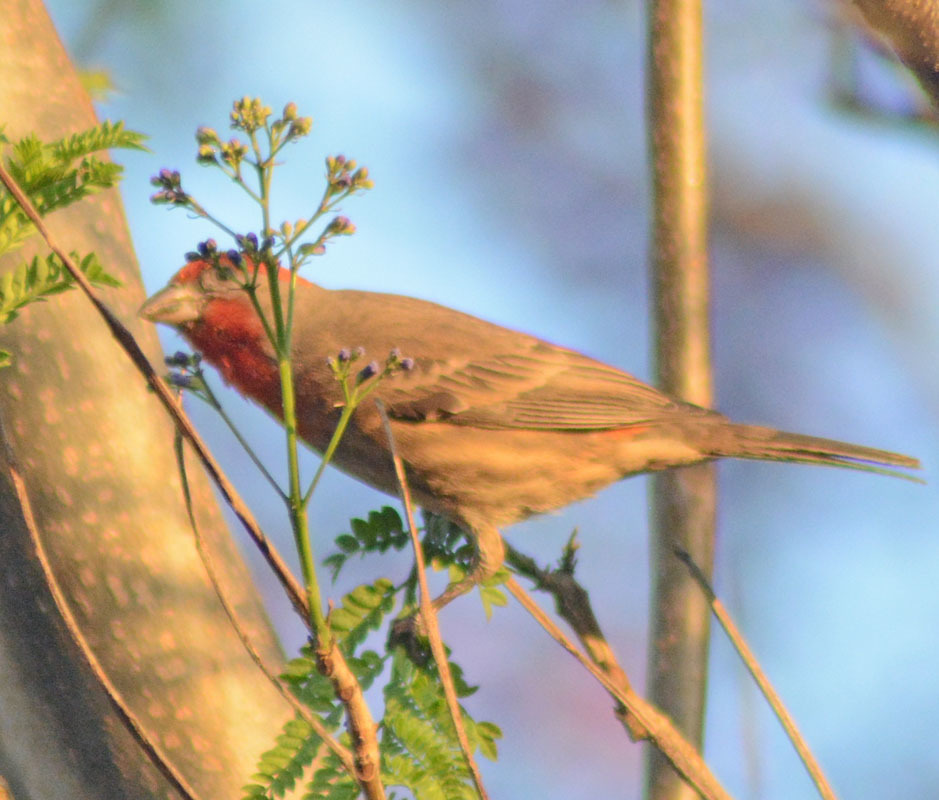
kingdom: Animalia
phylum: Chordata
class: Aves
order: Passeriformes
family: Fringillidae
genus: Haemorhous
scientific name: Haemorhous mexicanus
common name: House finch
